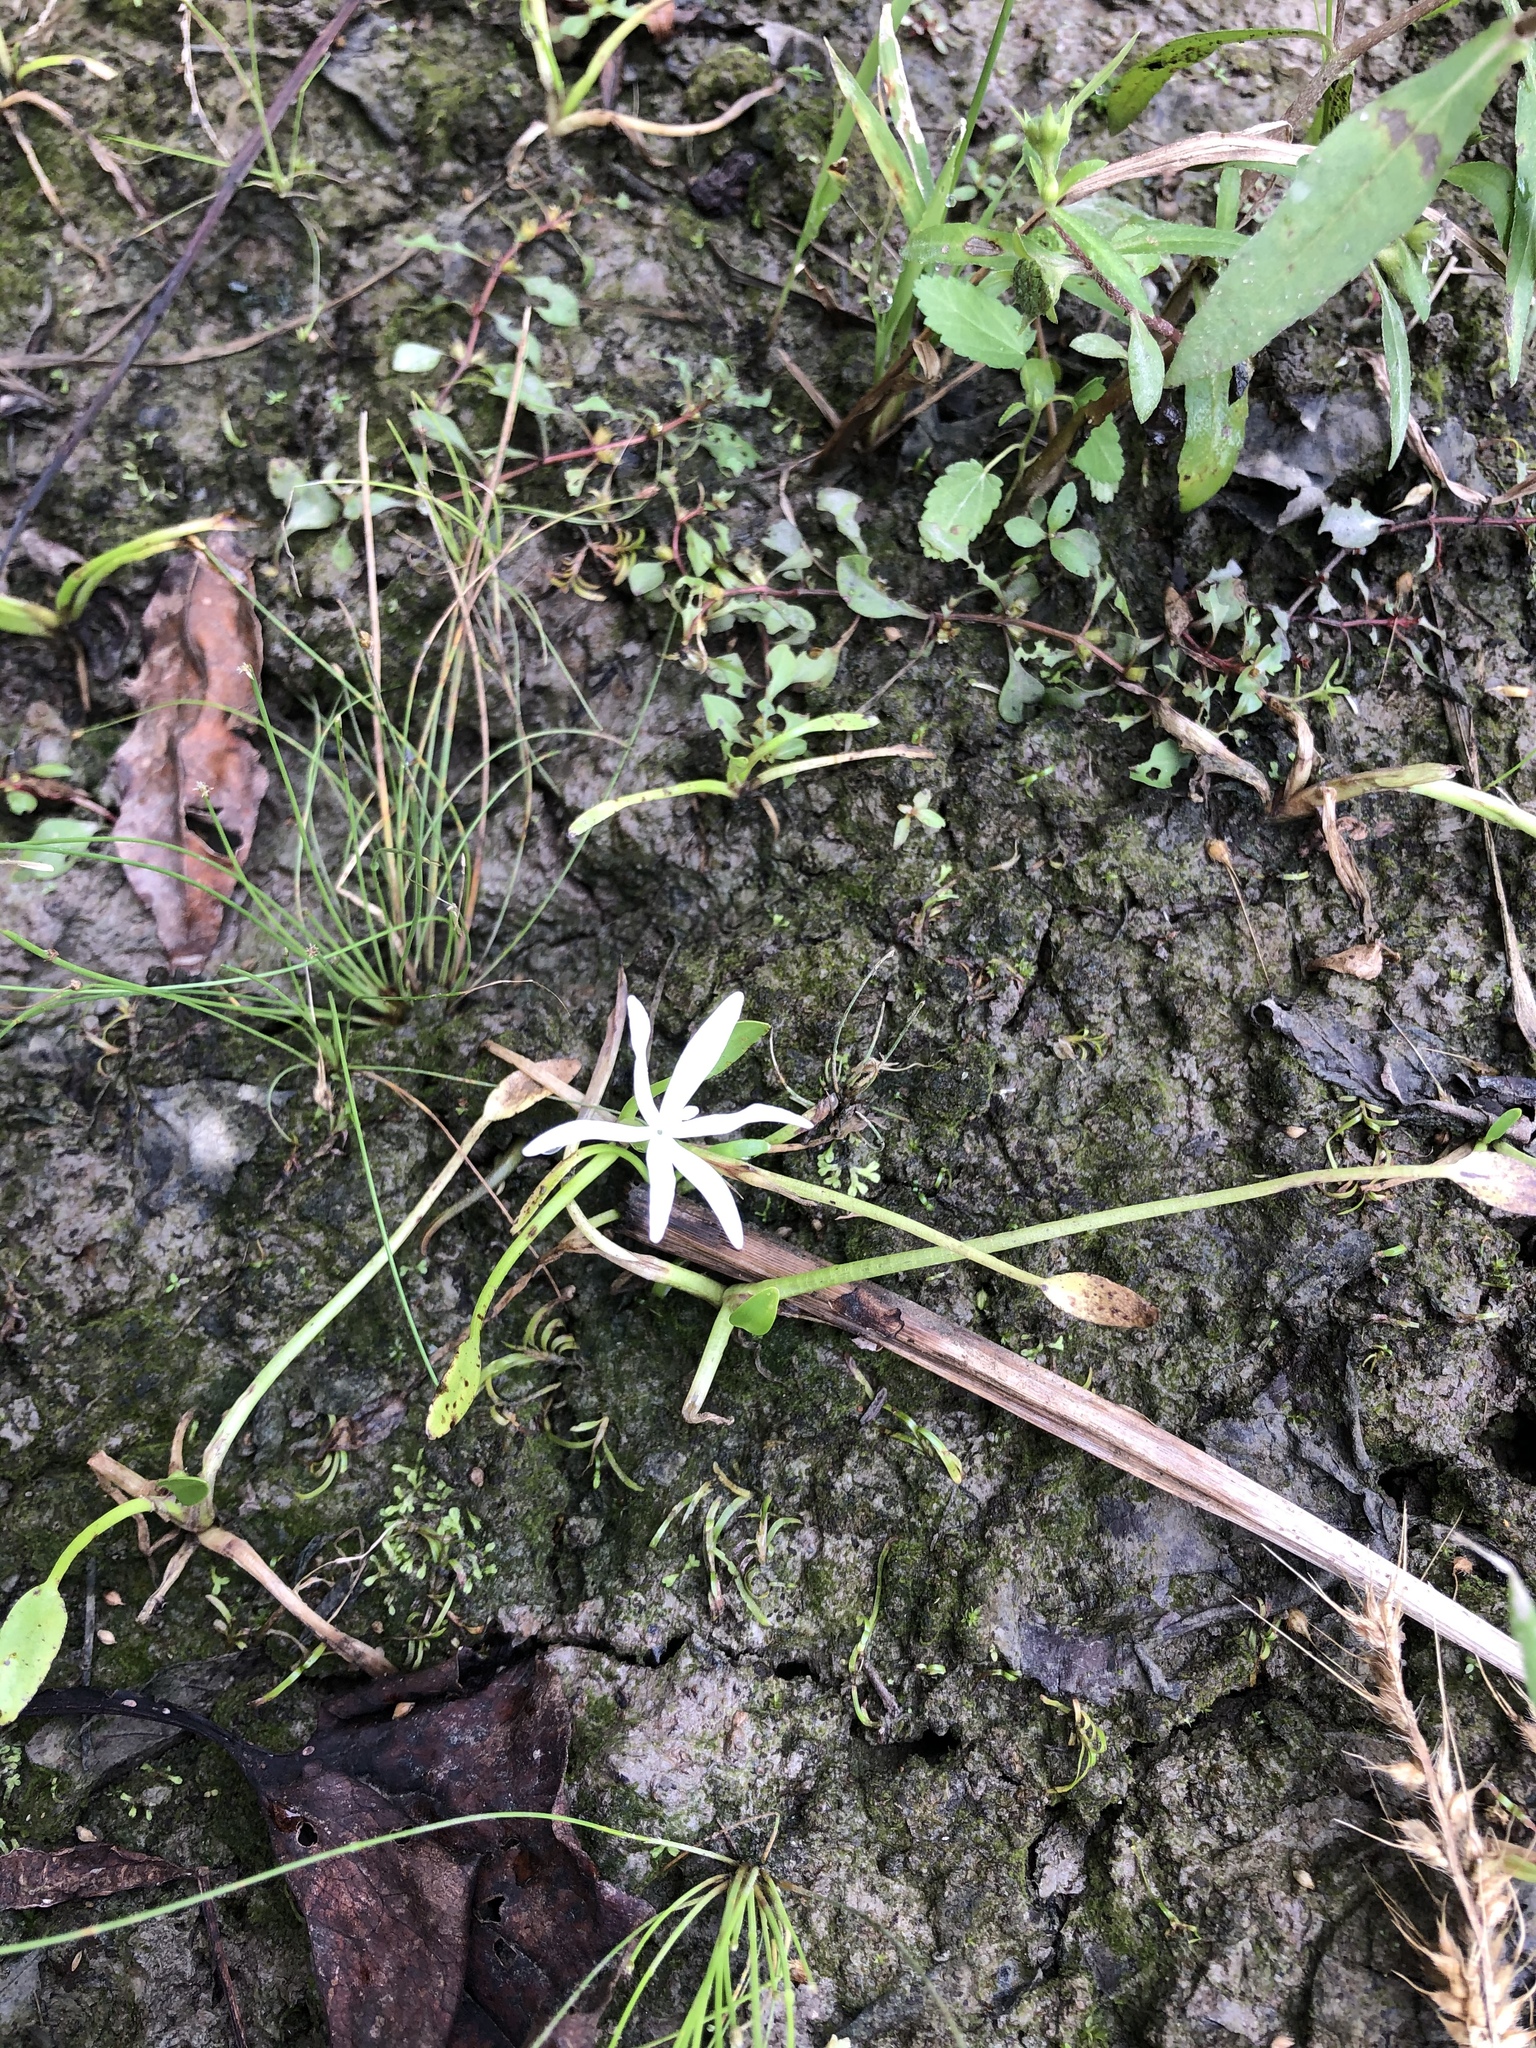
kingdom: Plantae
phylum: Tracheophyta
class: Liliopsida
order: Commelinales
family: Pontederiaceae
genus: Heteranthera
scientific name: Heteranthera limosa
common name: Blue mud-plantain
